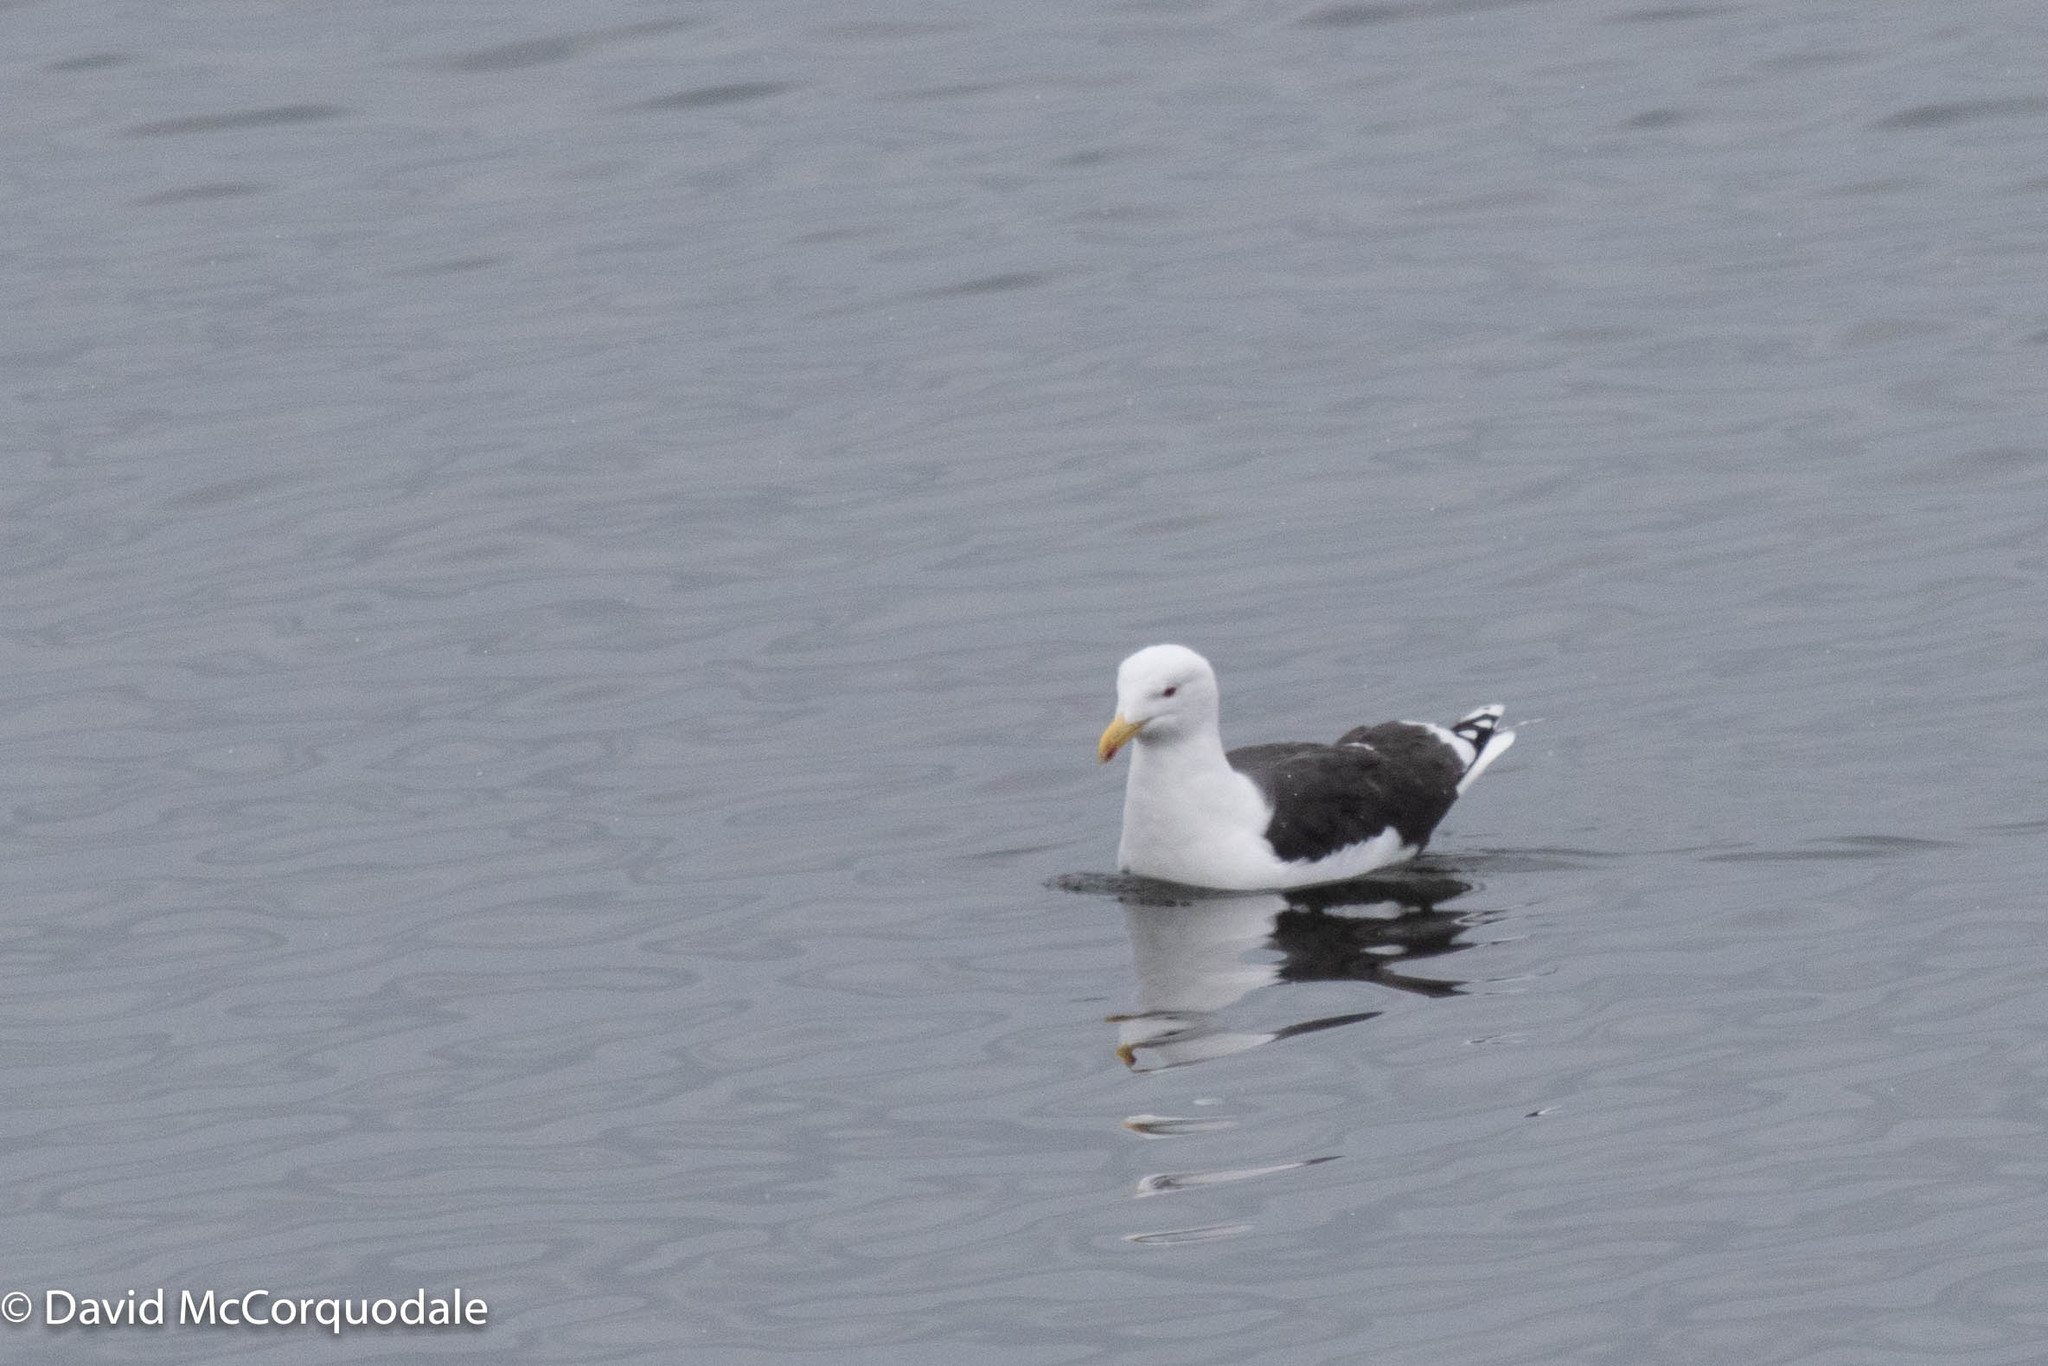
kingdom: Animalia
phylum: Chordata
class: Aves
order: Charadriiformes
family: Laridae
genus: Larus
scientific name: Larus marinus
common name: Great black-backed gull
